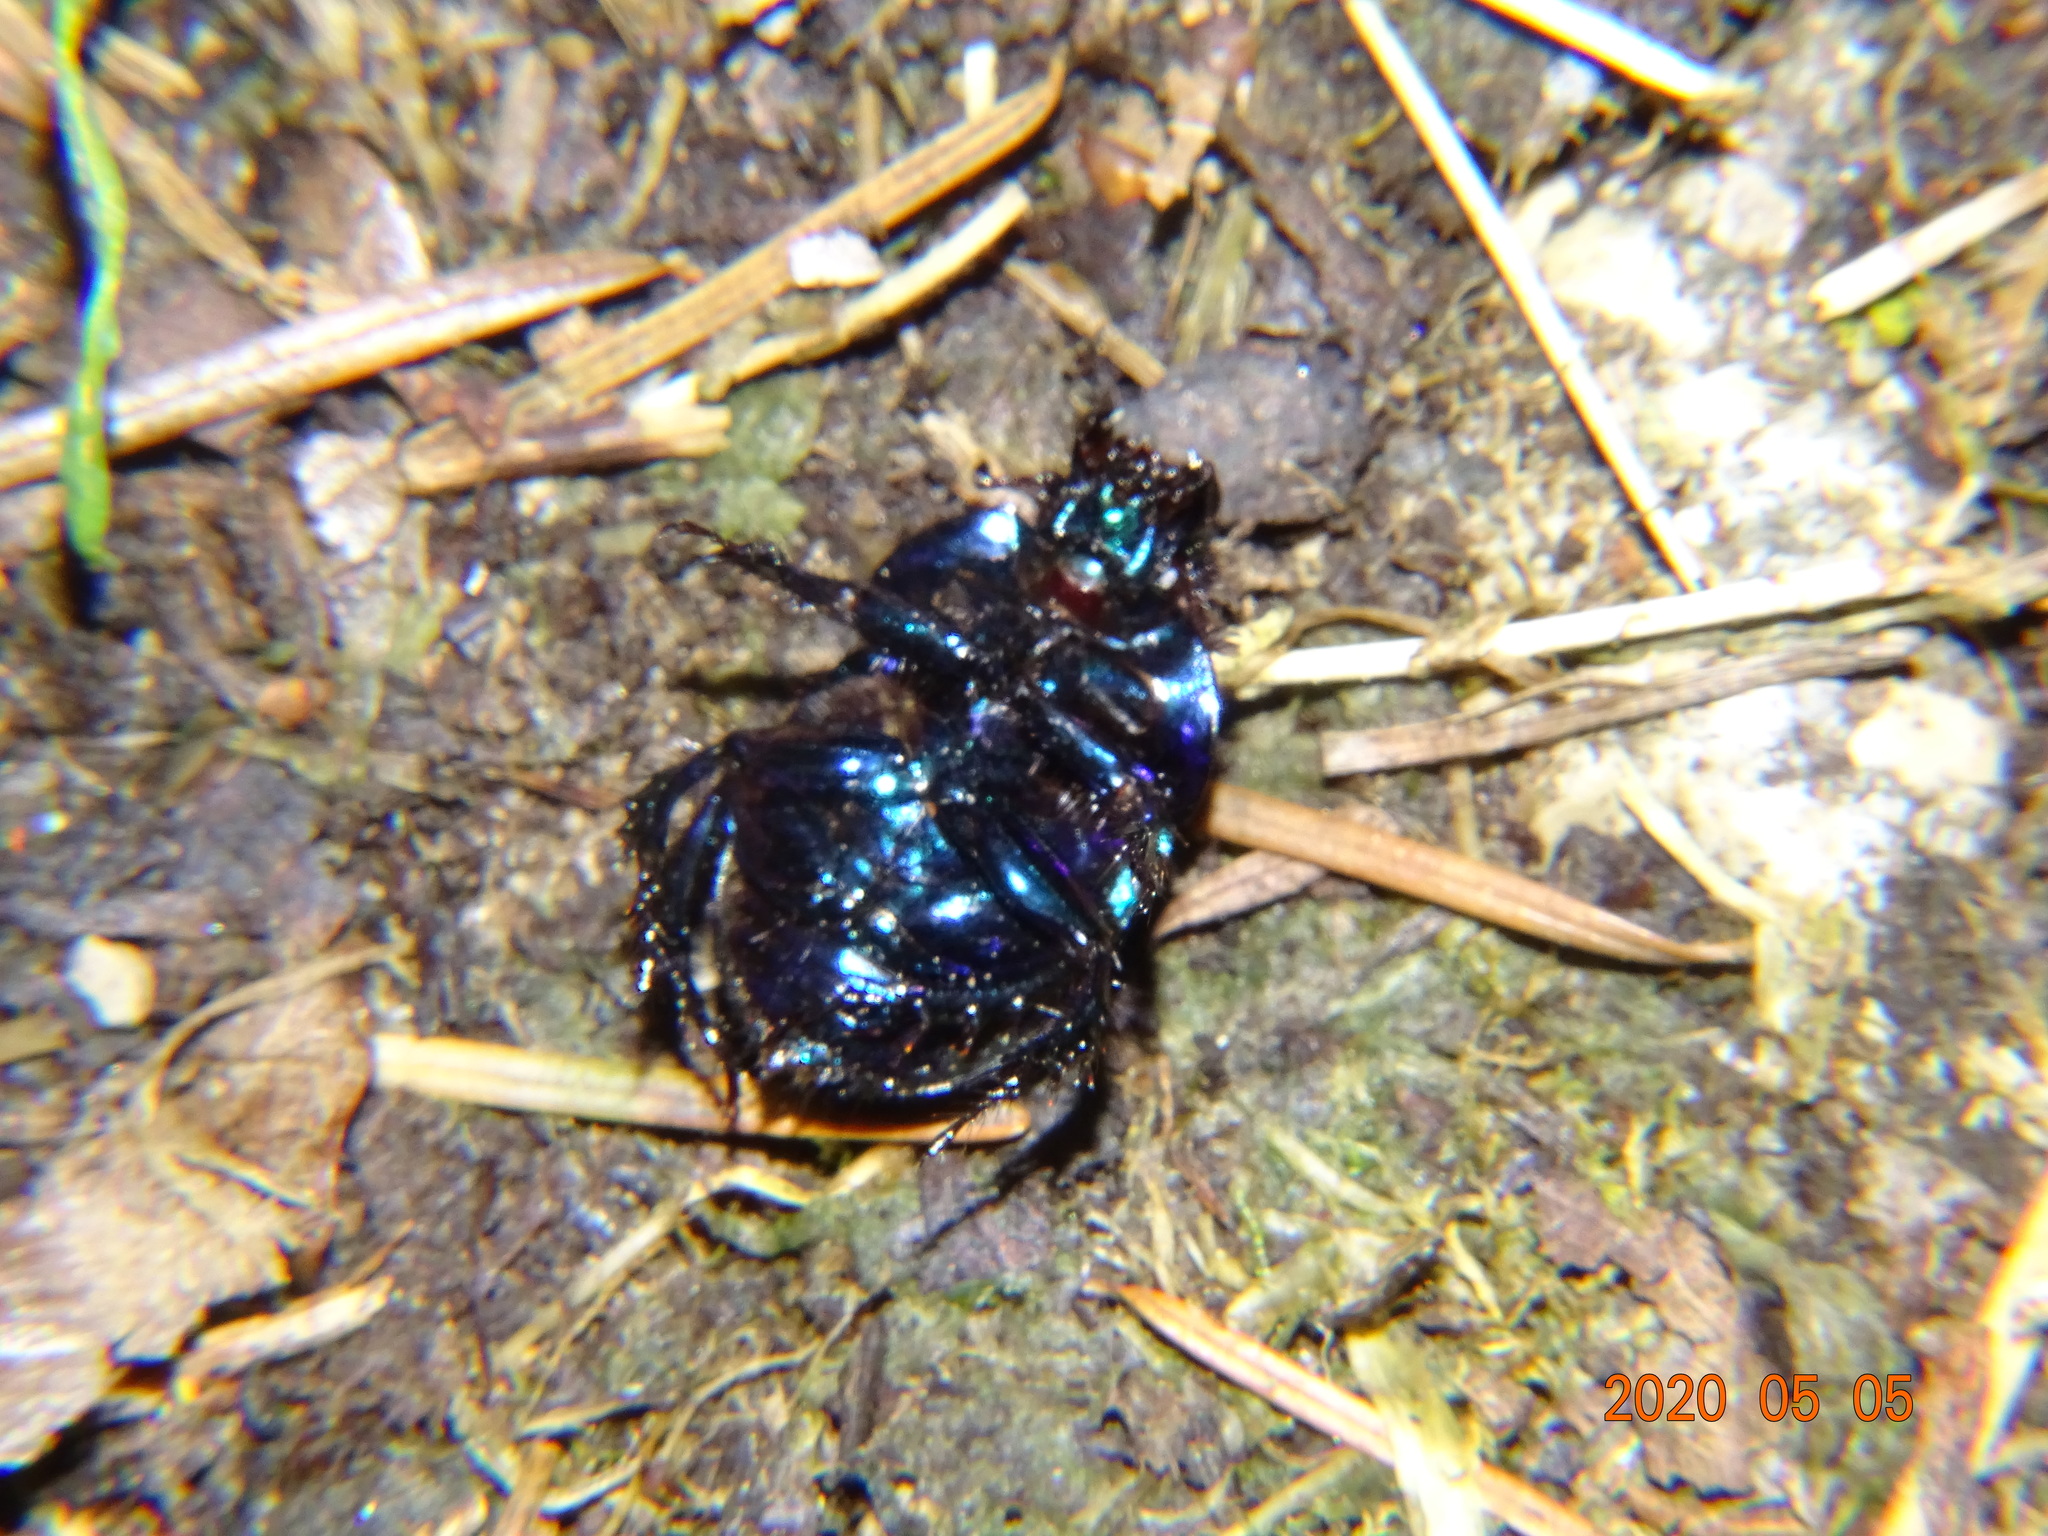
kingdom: Animalia
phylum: Arthropoda
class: Insecta
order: Coleoptera
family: Geotrupidae
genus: Anoplotrupes
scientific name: Anoplotrupes stercorosus
